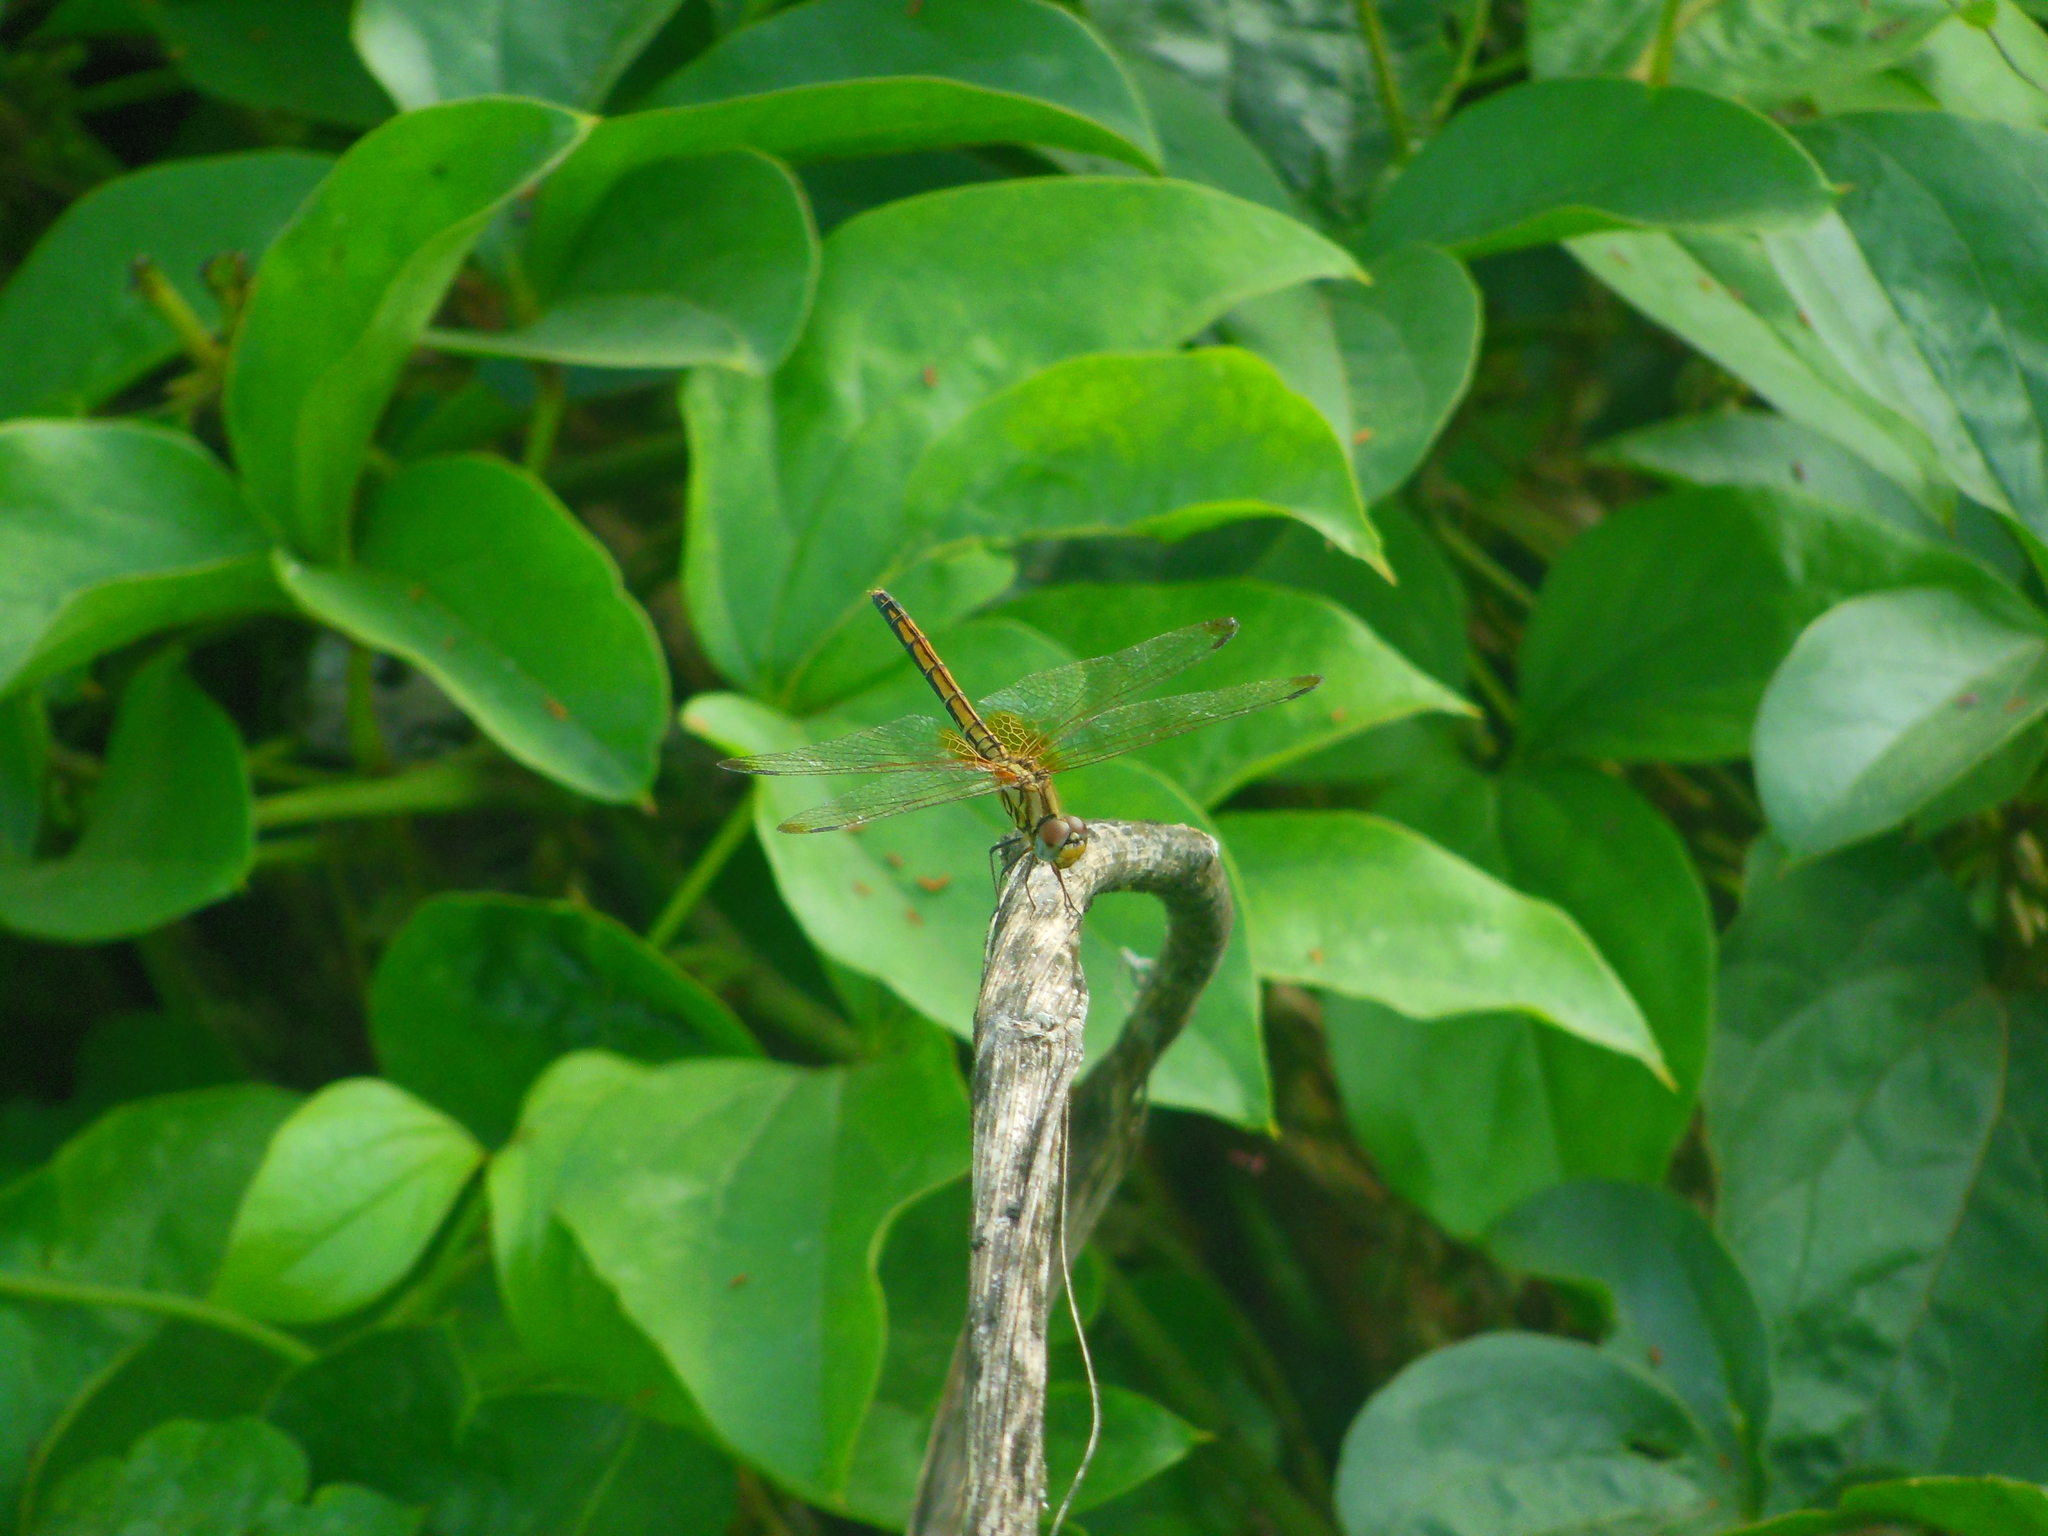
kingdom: Animalia
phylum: Arthropoda
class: Insecta
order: Odonata
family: Libellulidae
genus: Trithemis
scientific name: Trithemis aurora
